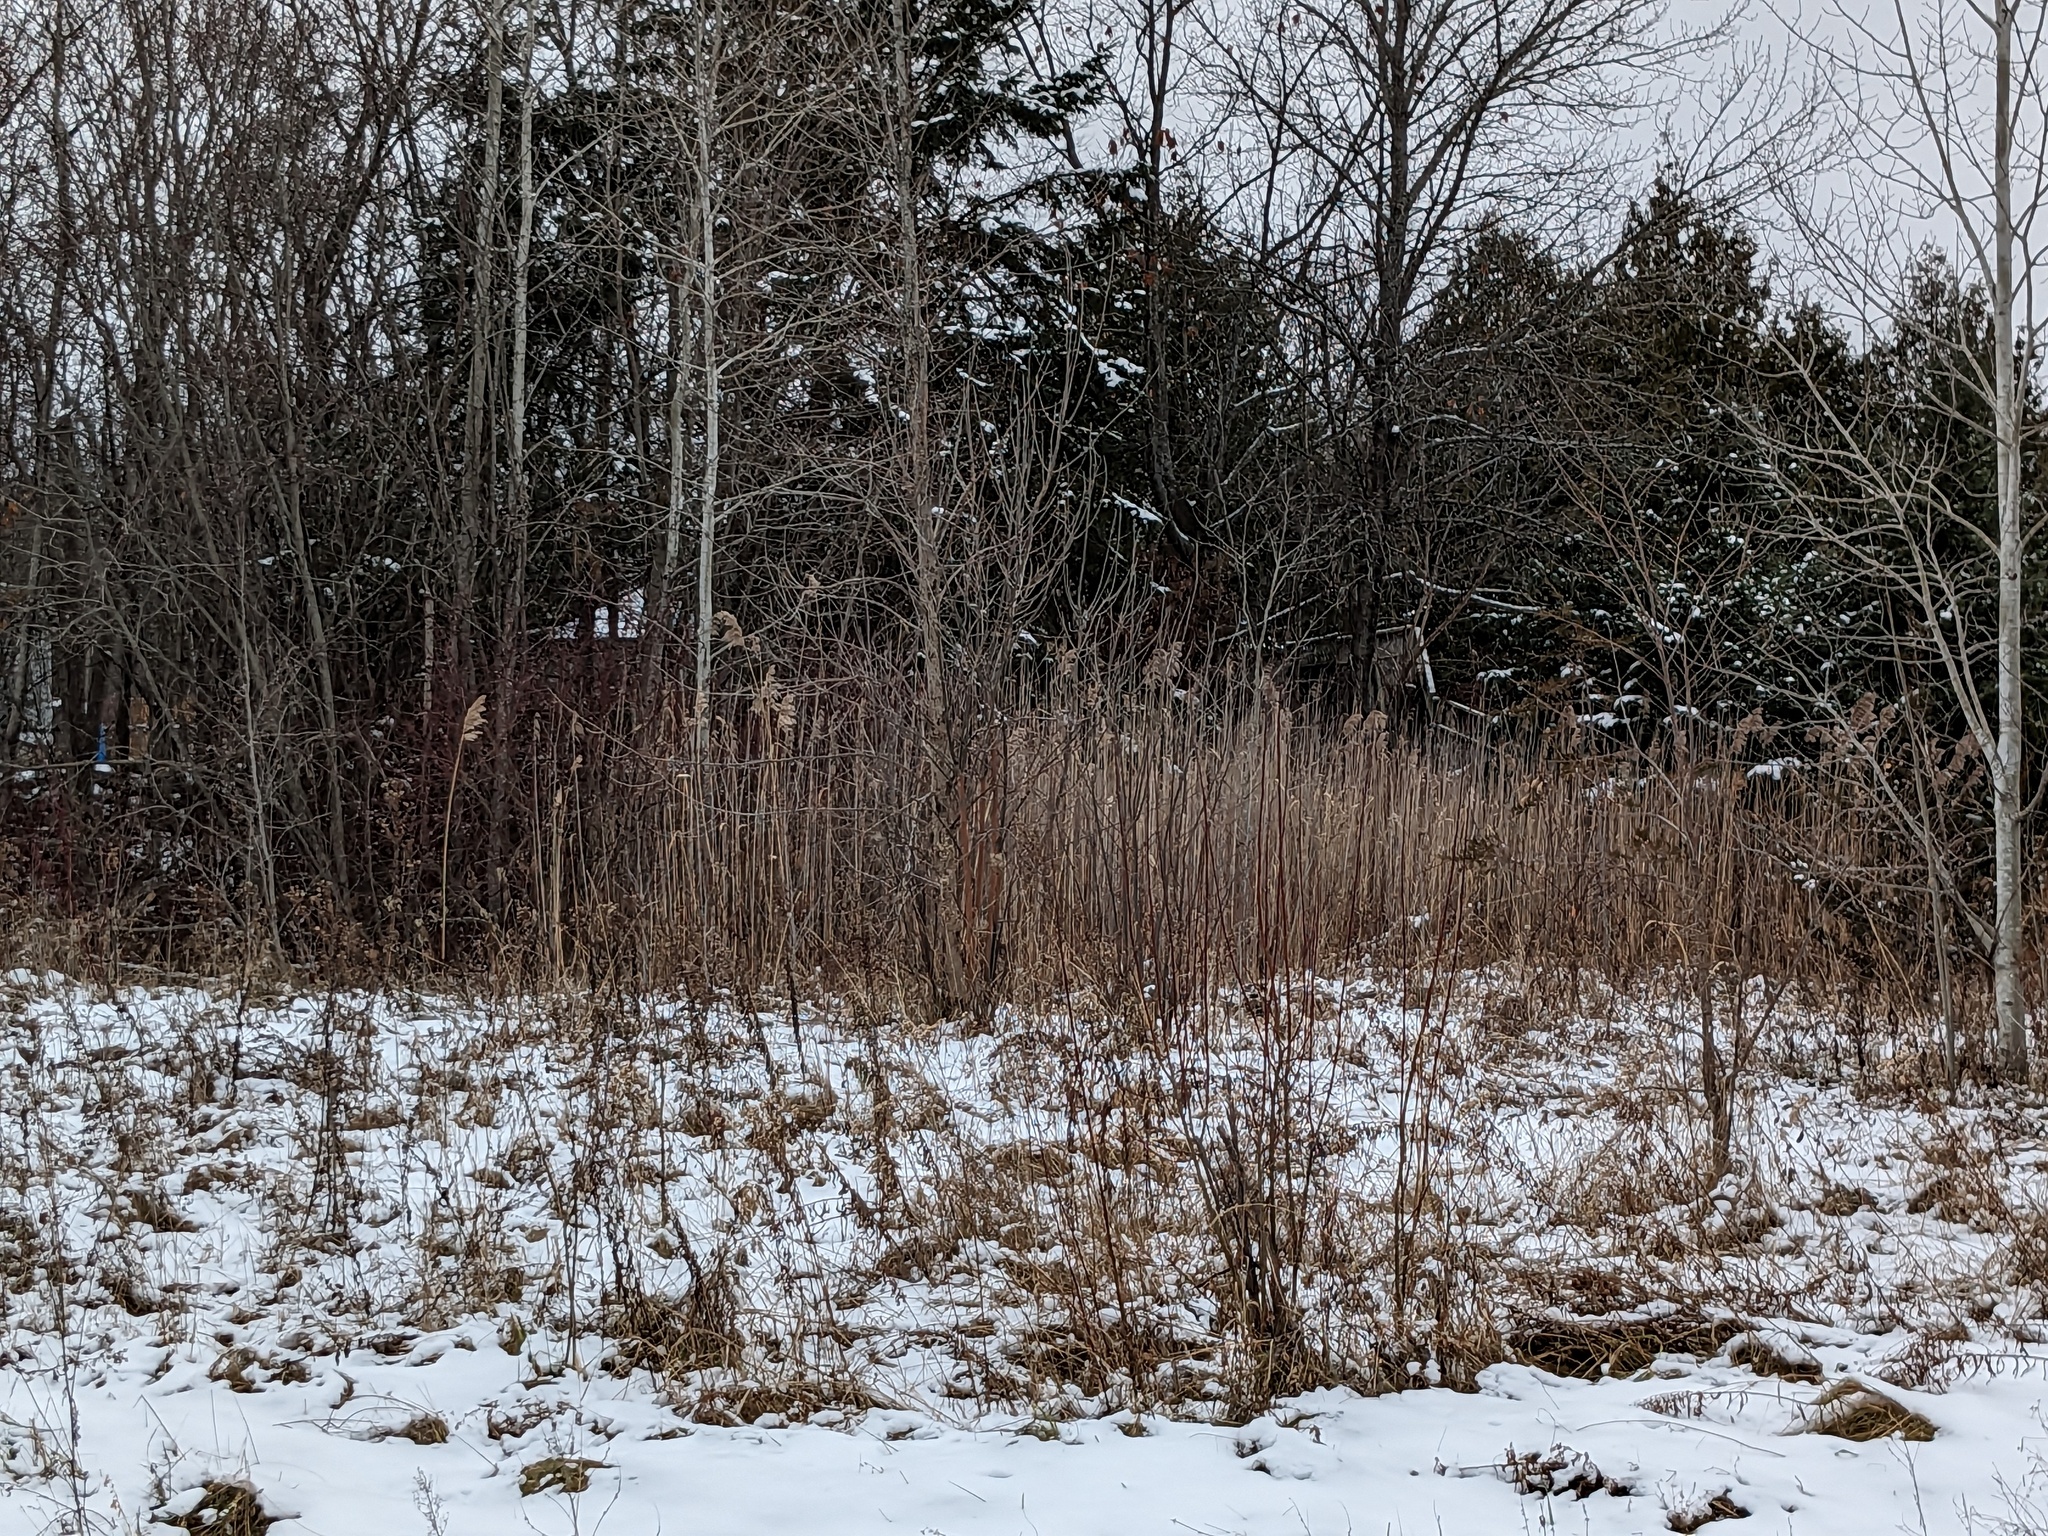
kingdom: Plantae
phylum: Tracheophyta
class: Liliopsida
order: Poales
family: Poaceae
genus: Phragmites
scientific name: Phragmites australis
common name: Common reed
